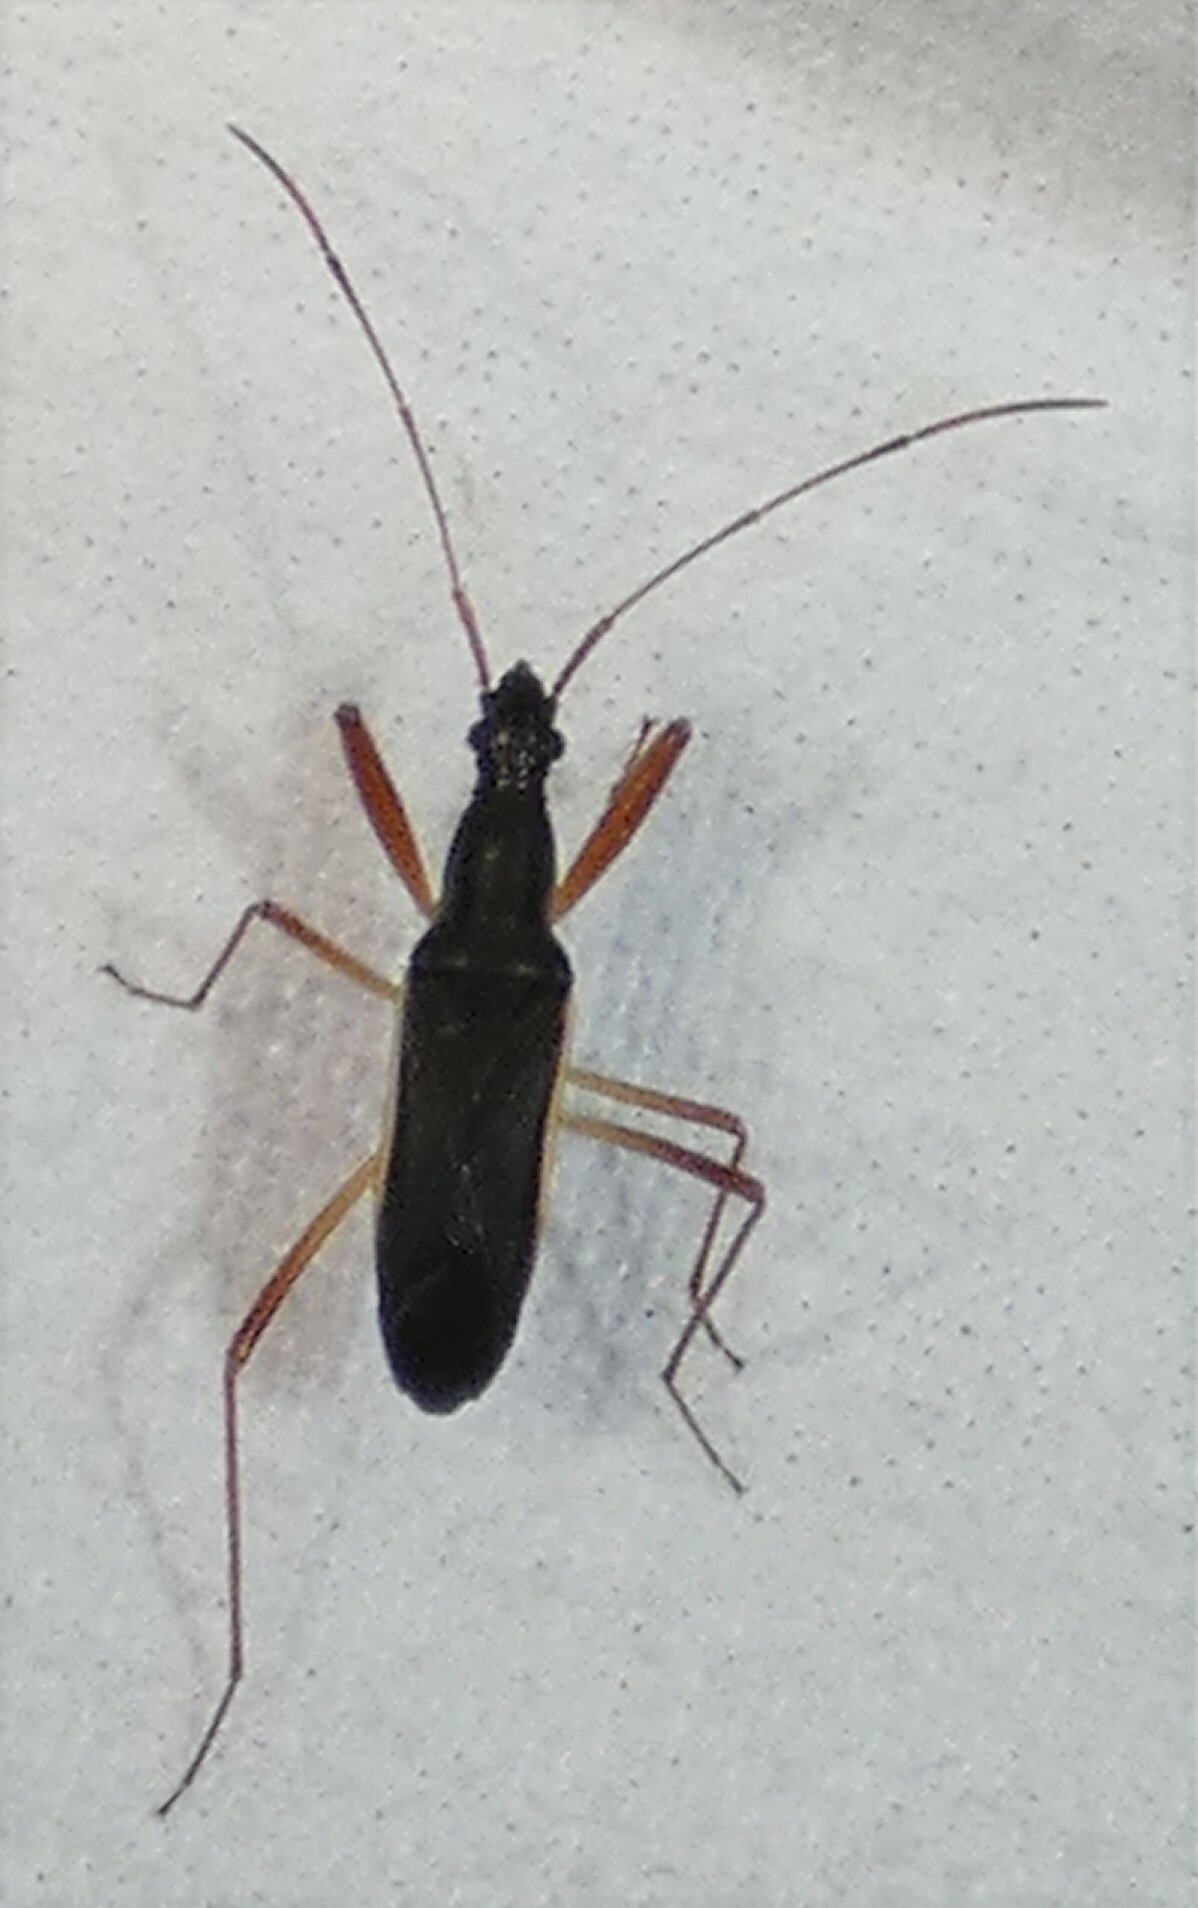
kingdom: Animalia
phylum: Arthropoda
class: Insecta
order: Hemiptera
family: Rhyparochromidae
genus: Cnemodus
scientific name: Cnemodus mavortius
